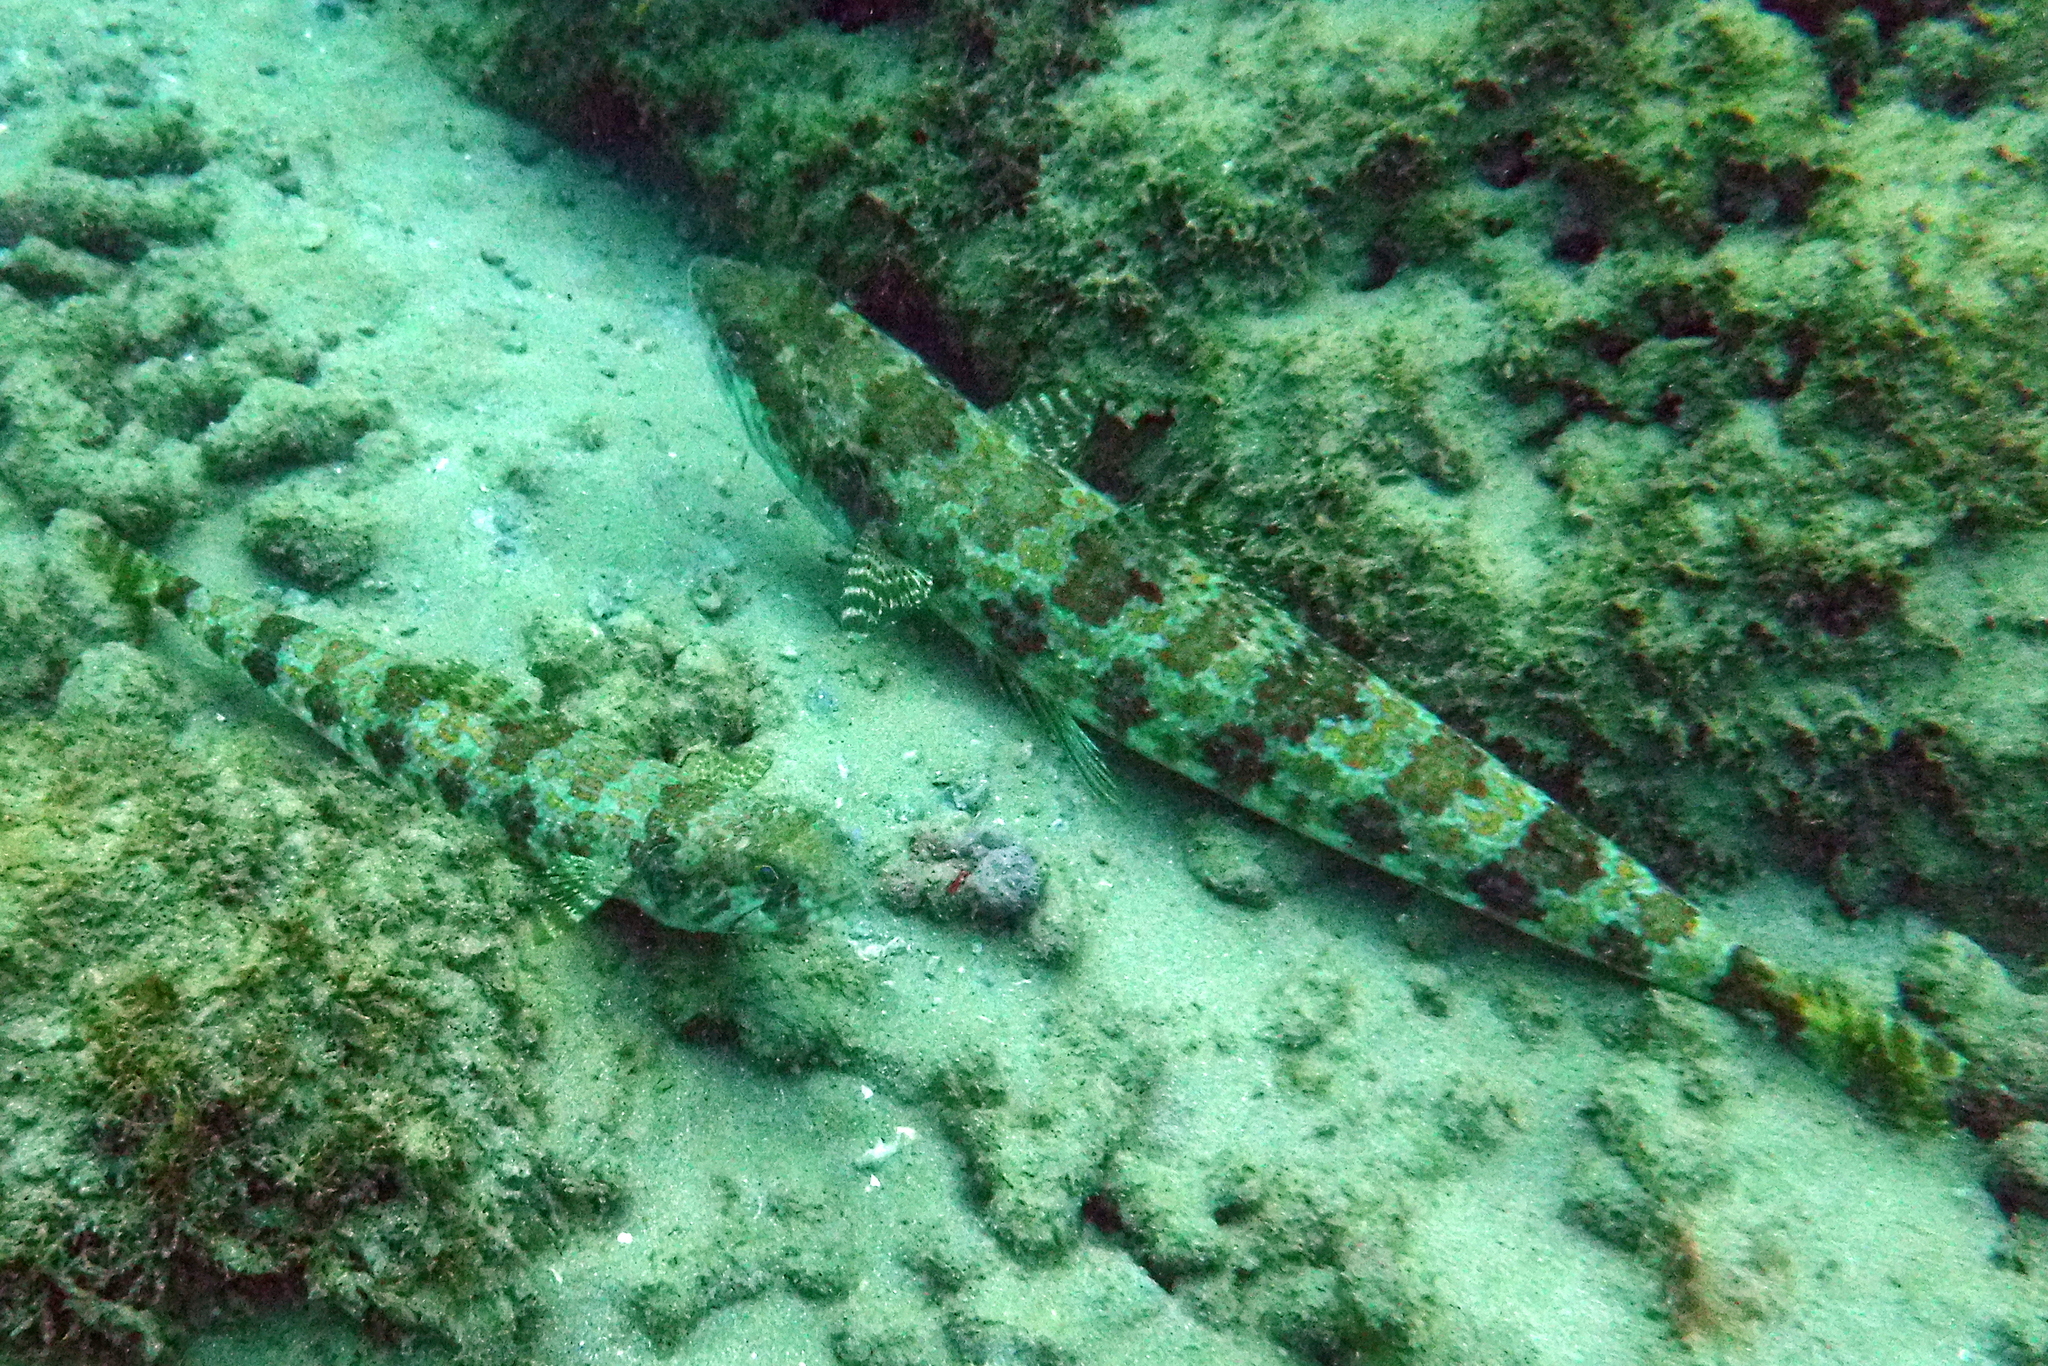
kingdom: Animalia
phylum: Chordata
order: Aulopiformes
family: Synodontidae
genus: Synodus
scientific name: Synodus intermedius
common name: Sand diver
